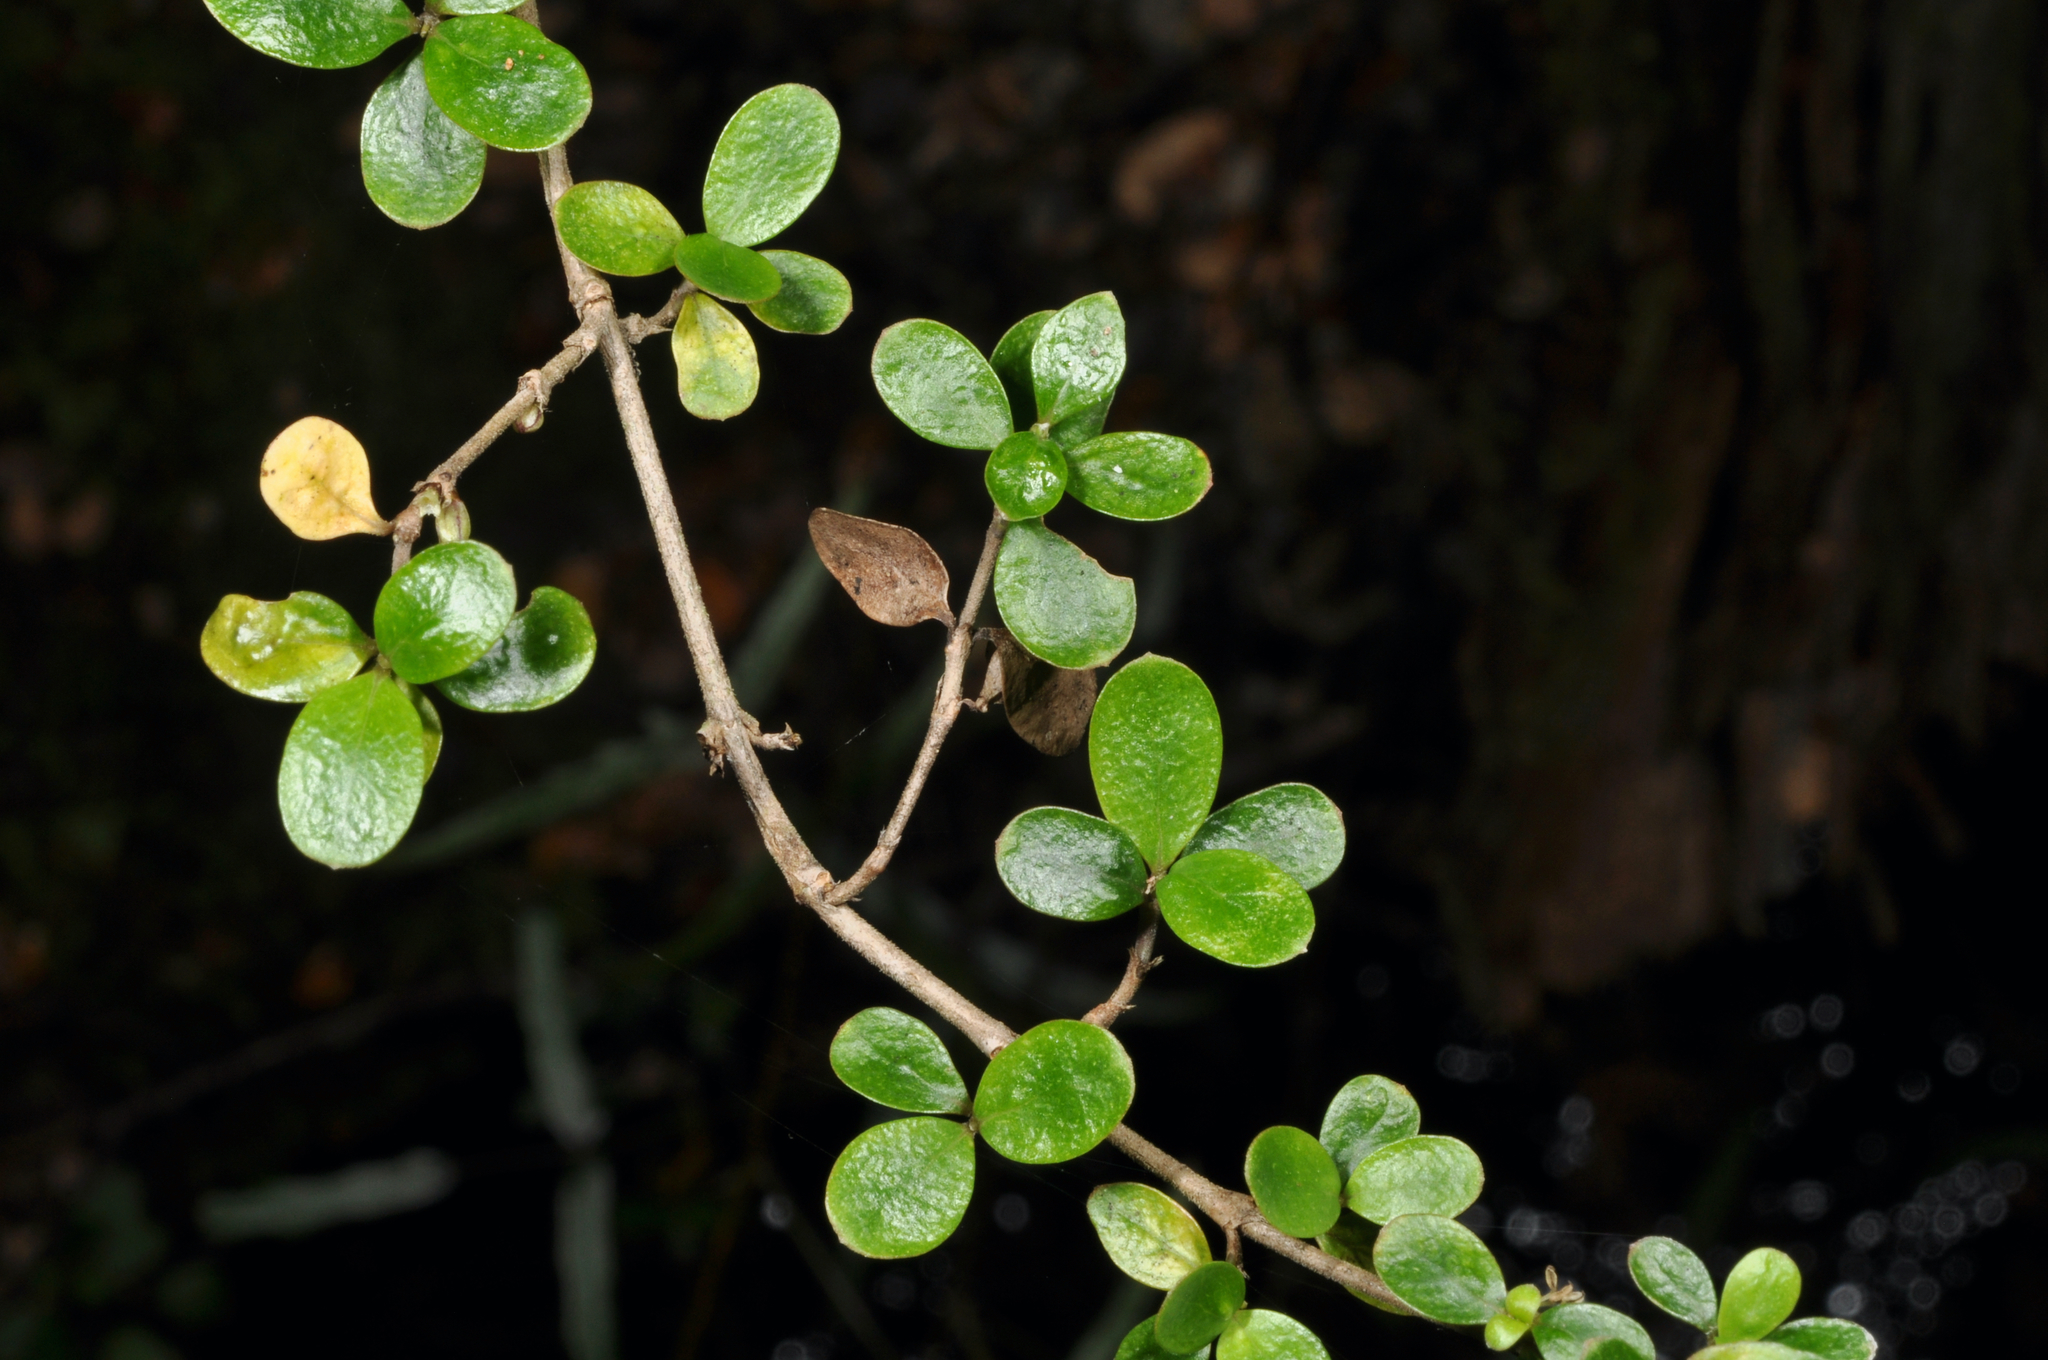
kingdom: Plantae
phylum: Tracheophyta
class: Magnoliopsida
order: Gentianales
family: Rubiaceae
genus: Coprosma
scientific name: Coprosma ciliata
